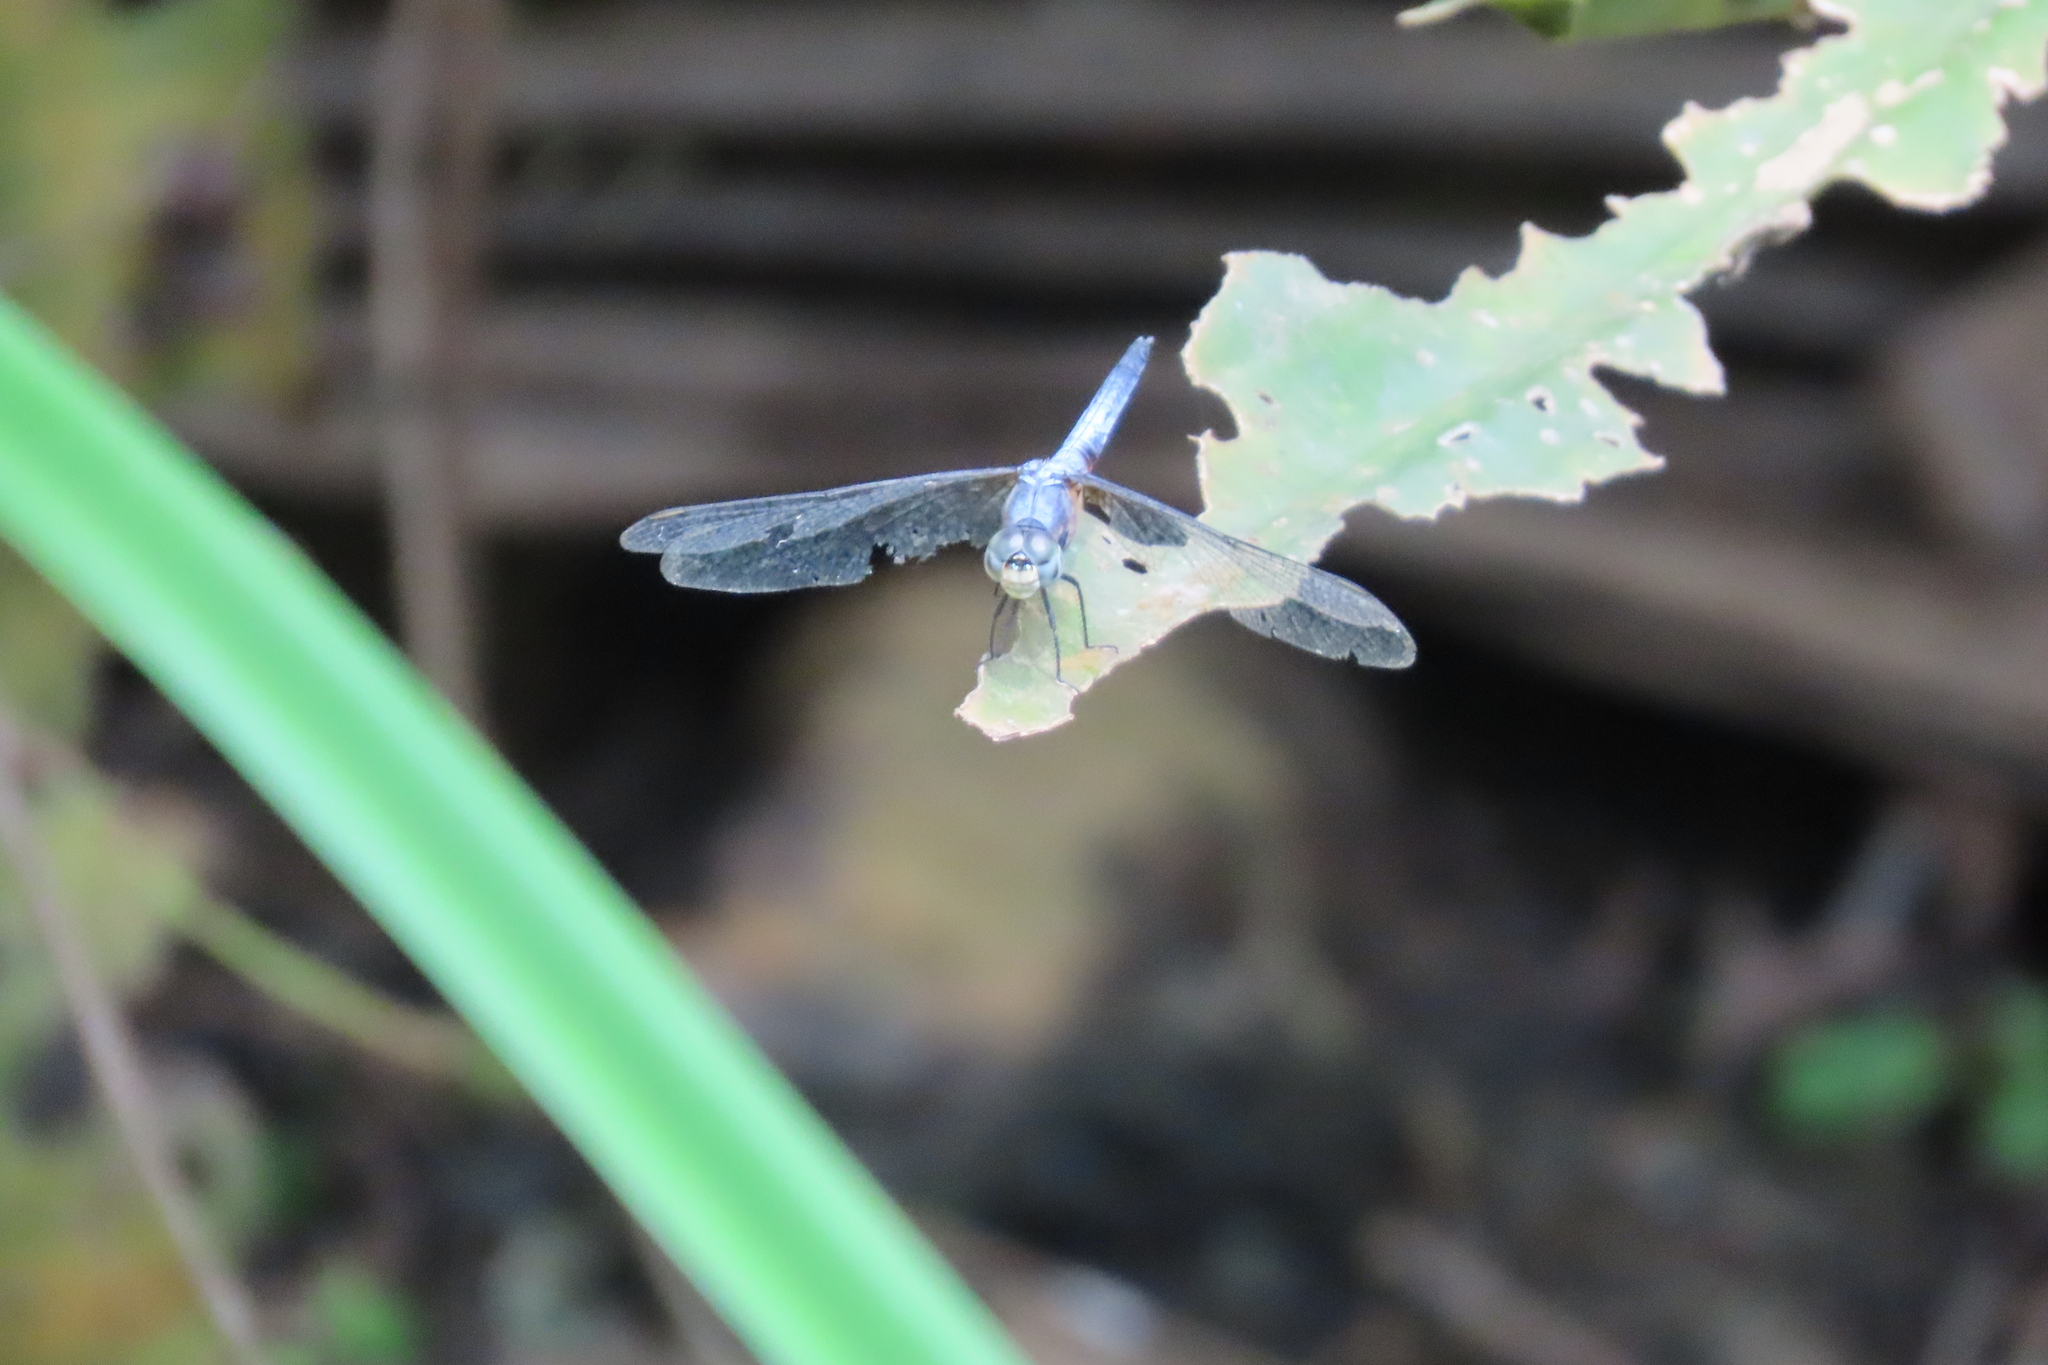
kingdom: Animalia
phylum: Arthropoda
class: Insecta
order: Odonata
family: Libellulidae
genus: Brachydiplax
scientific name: Brachydiplax chalybea
